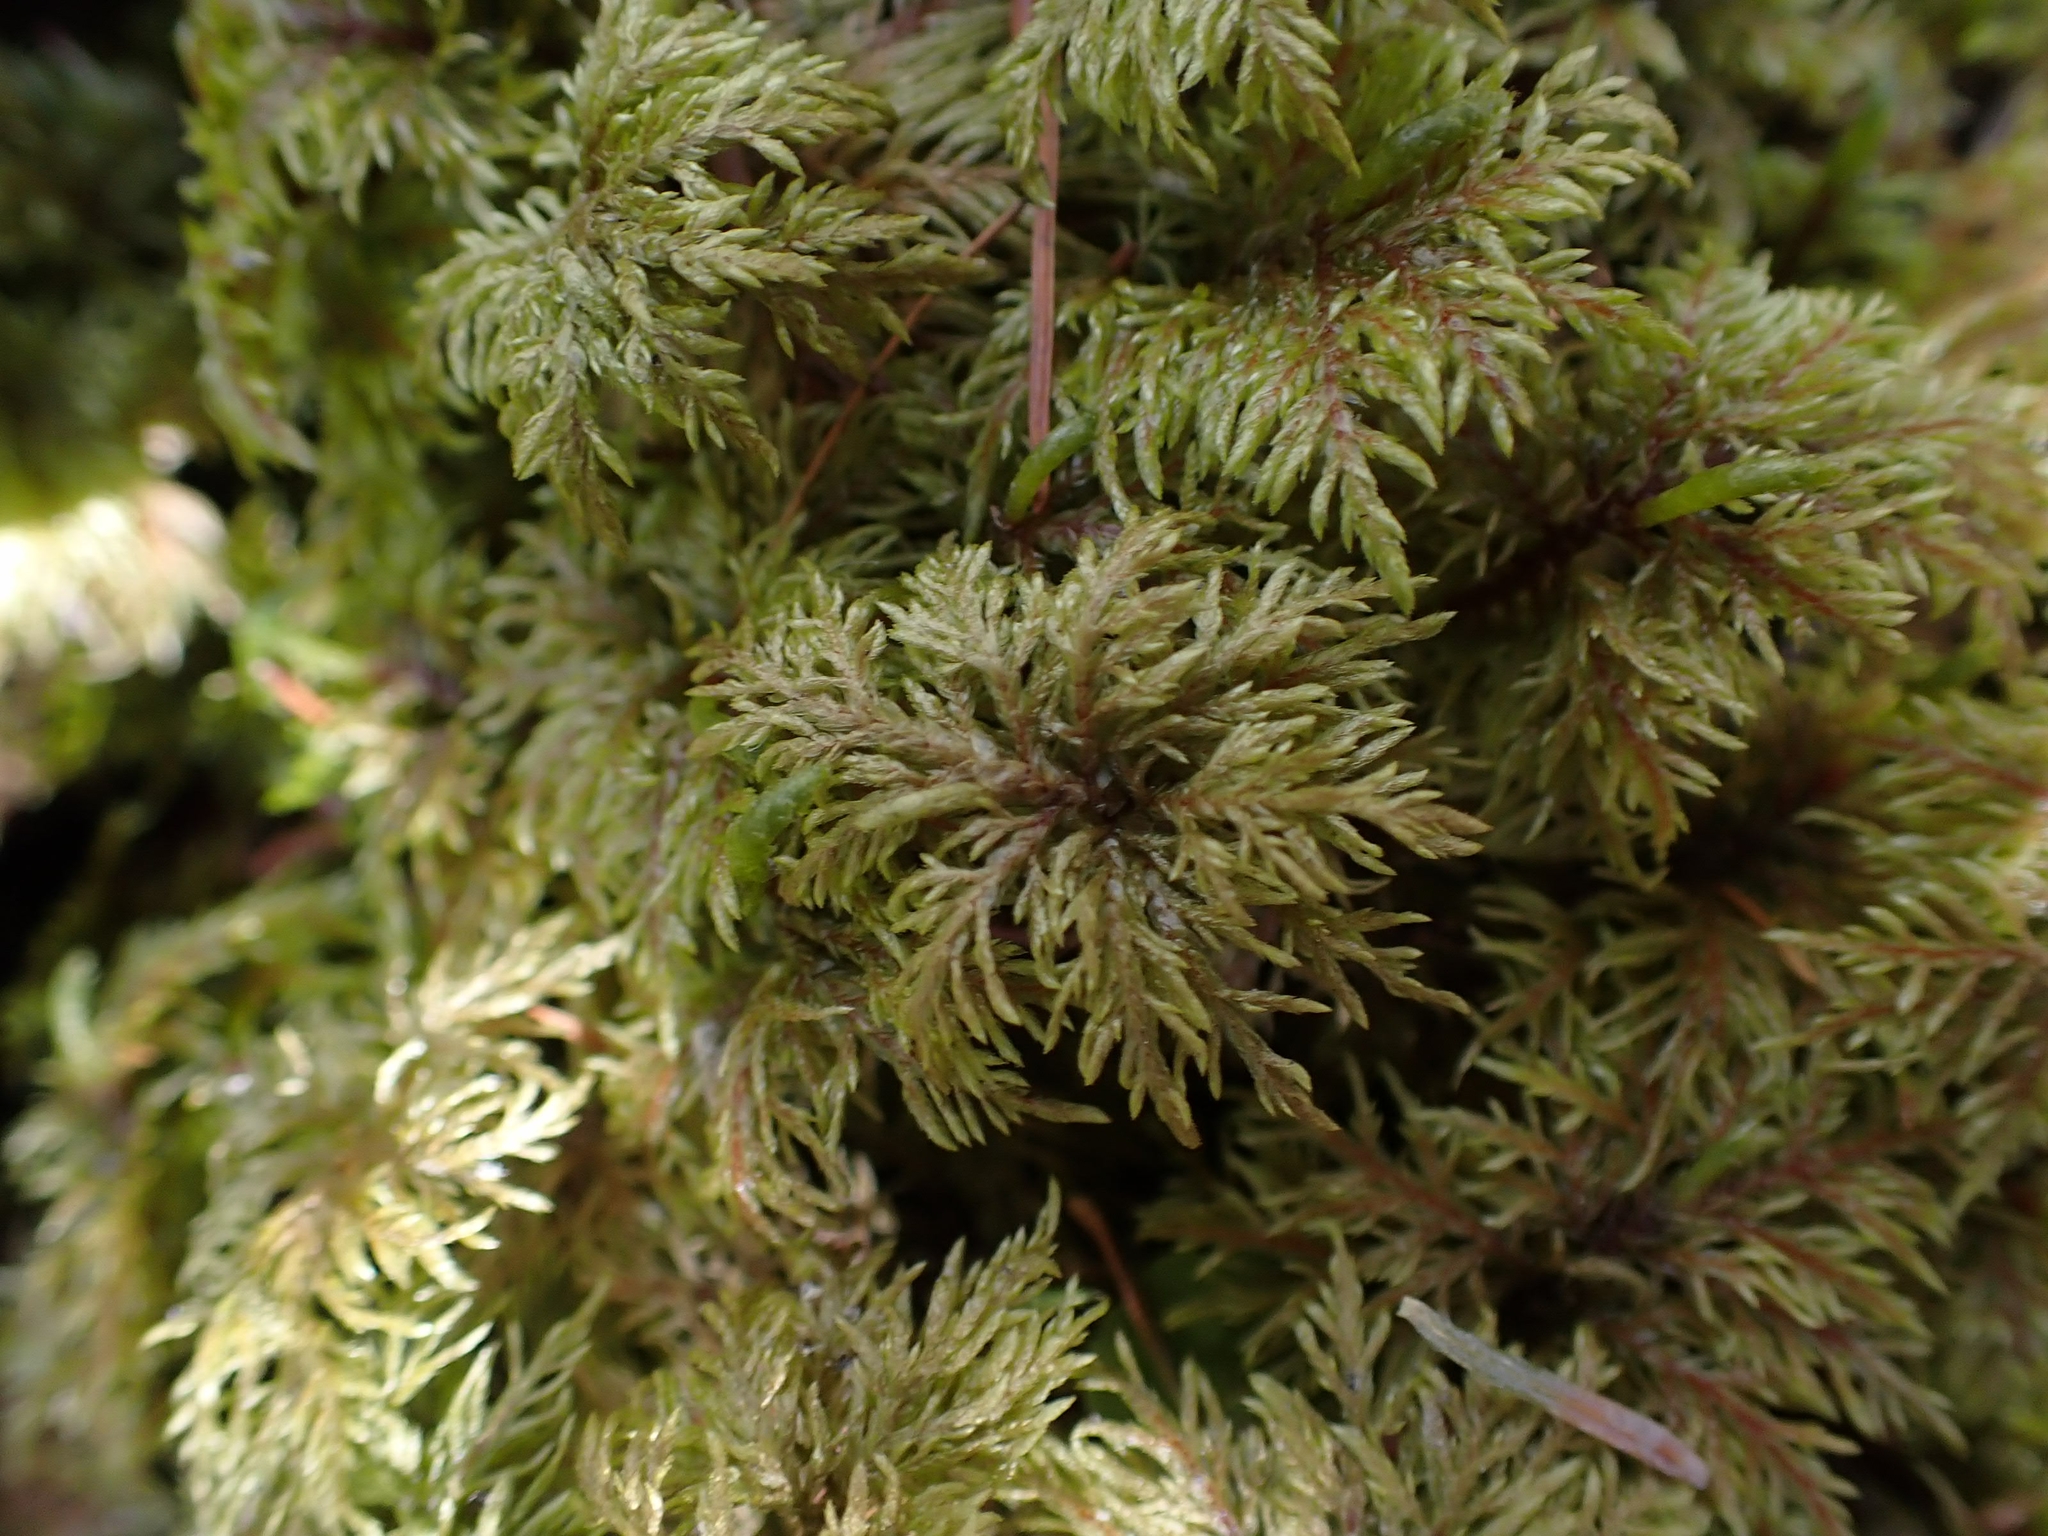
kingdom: Plantae
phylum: Bryophyta
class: Bryopsida
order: Hypnales
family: Hylocomiaceae
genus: Hylocomium
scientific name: Hylocomium splendens
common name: Stairstep moss
